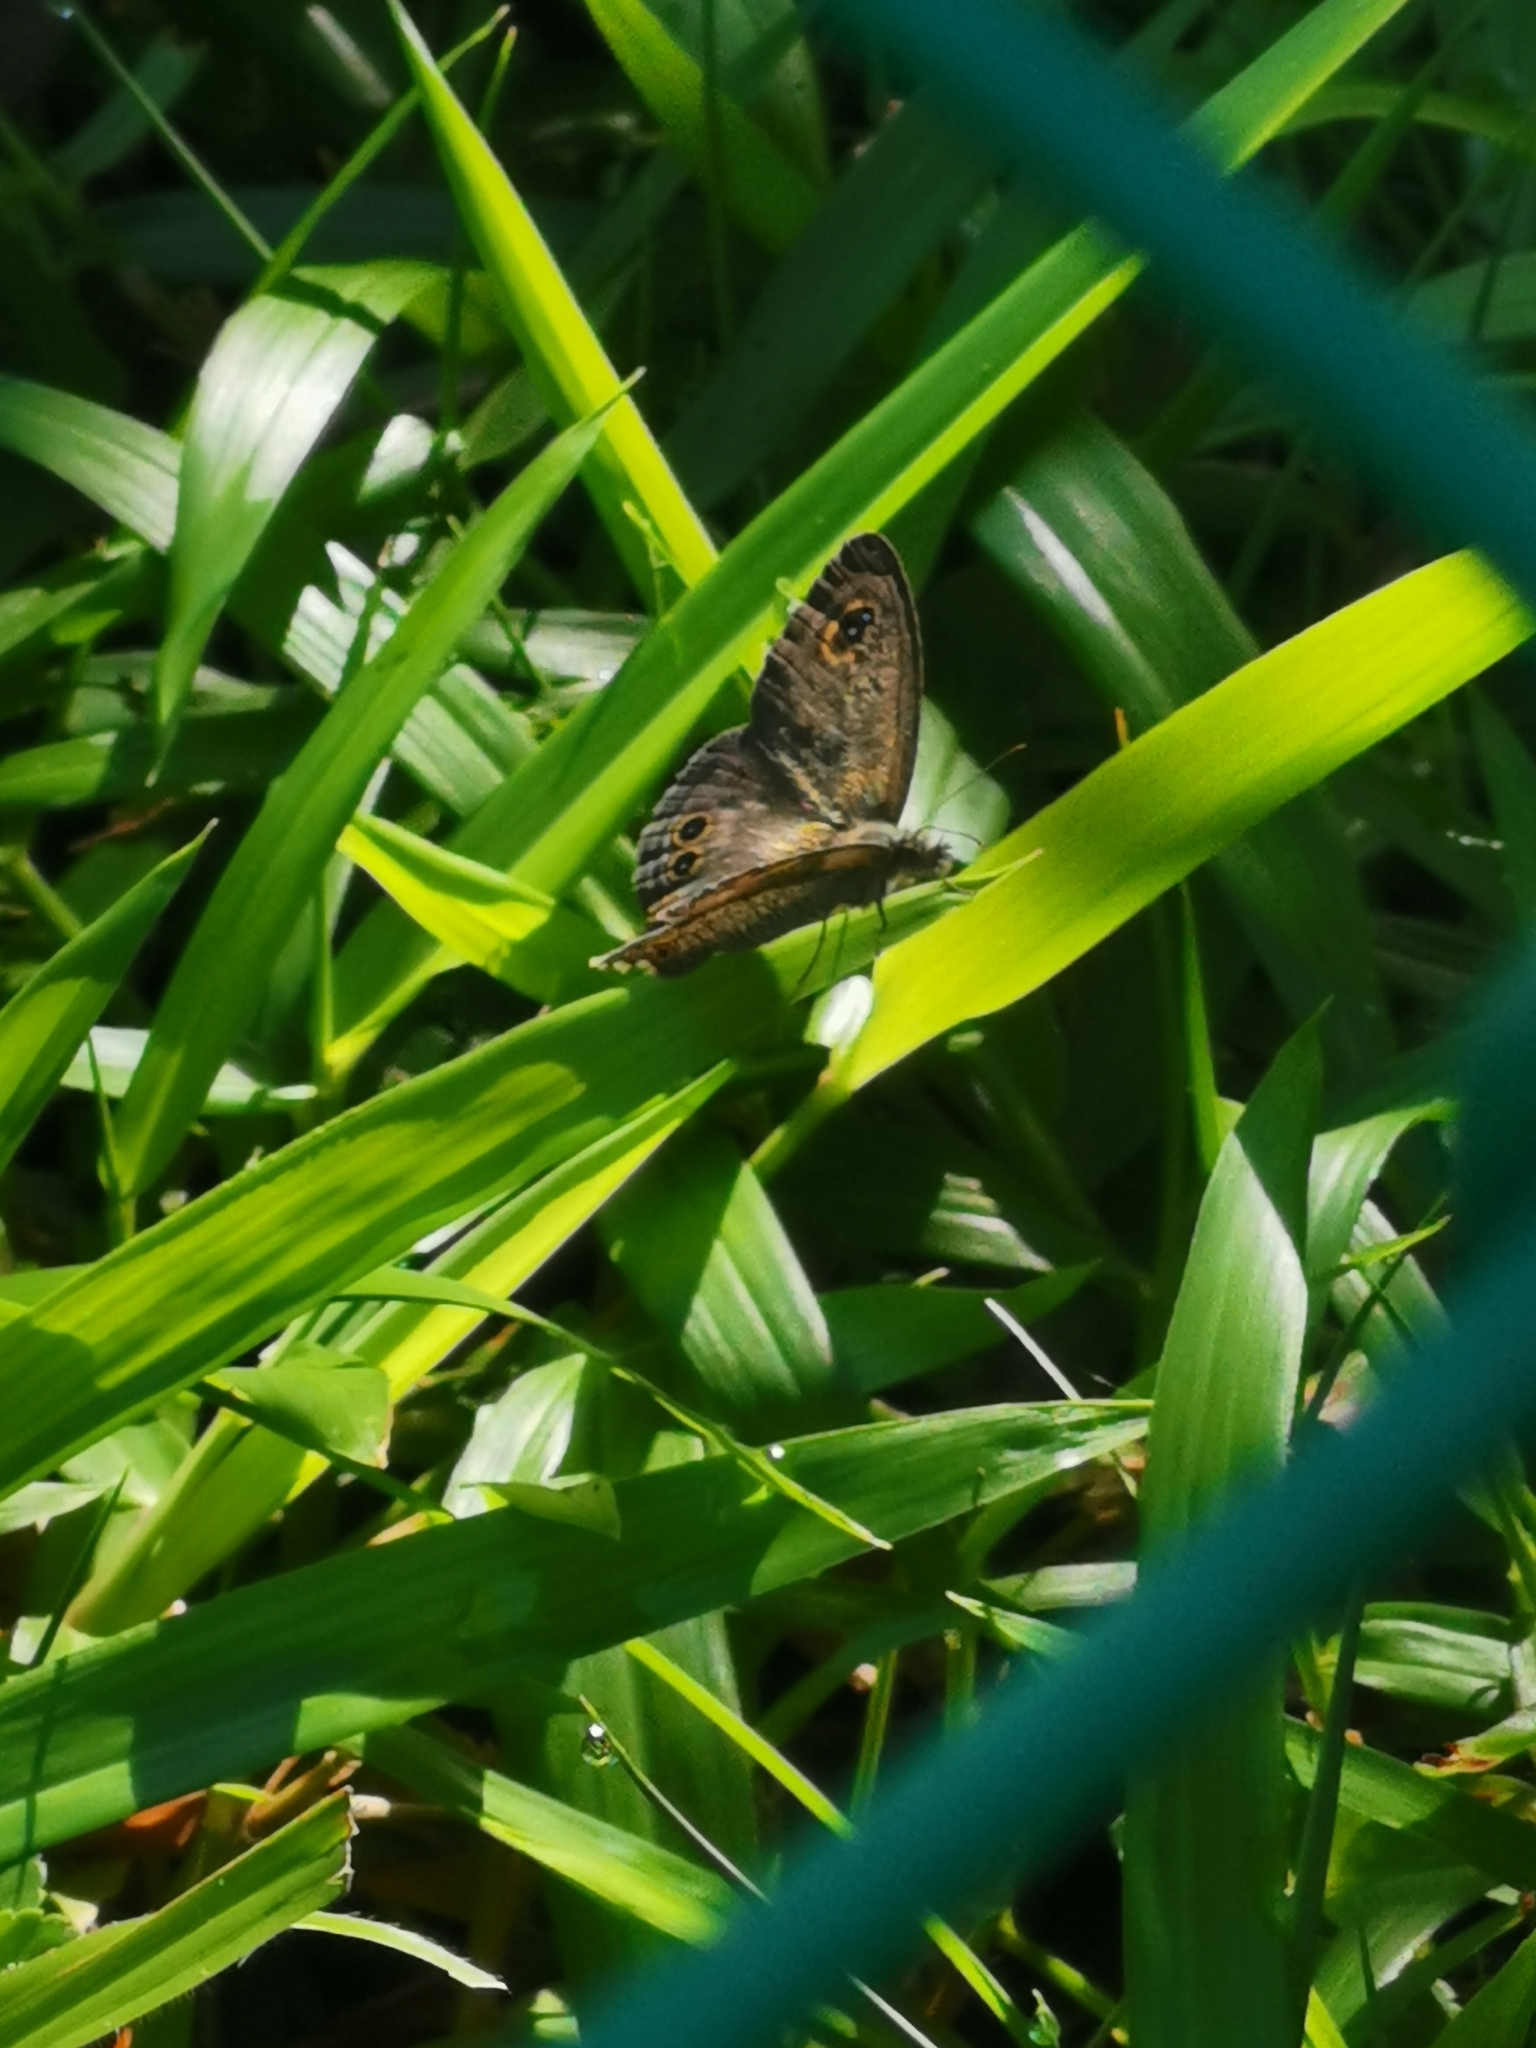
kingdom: Animalia
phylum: Arthropoda
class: Insecta
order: Lepidoptera
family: Nymphalidae
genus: Ypthima
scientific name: Ypthima baldus
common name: Common five-ring
